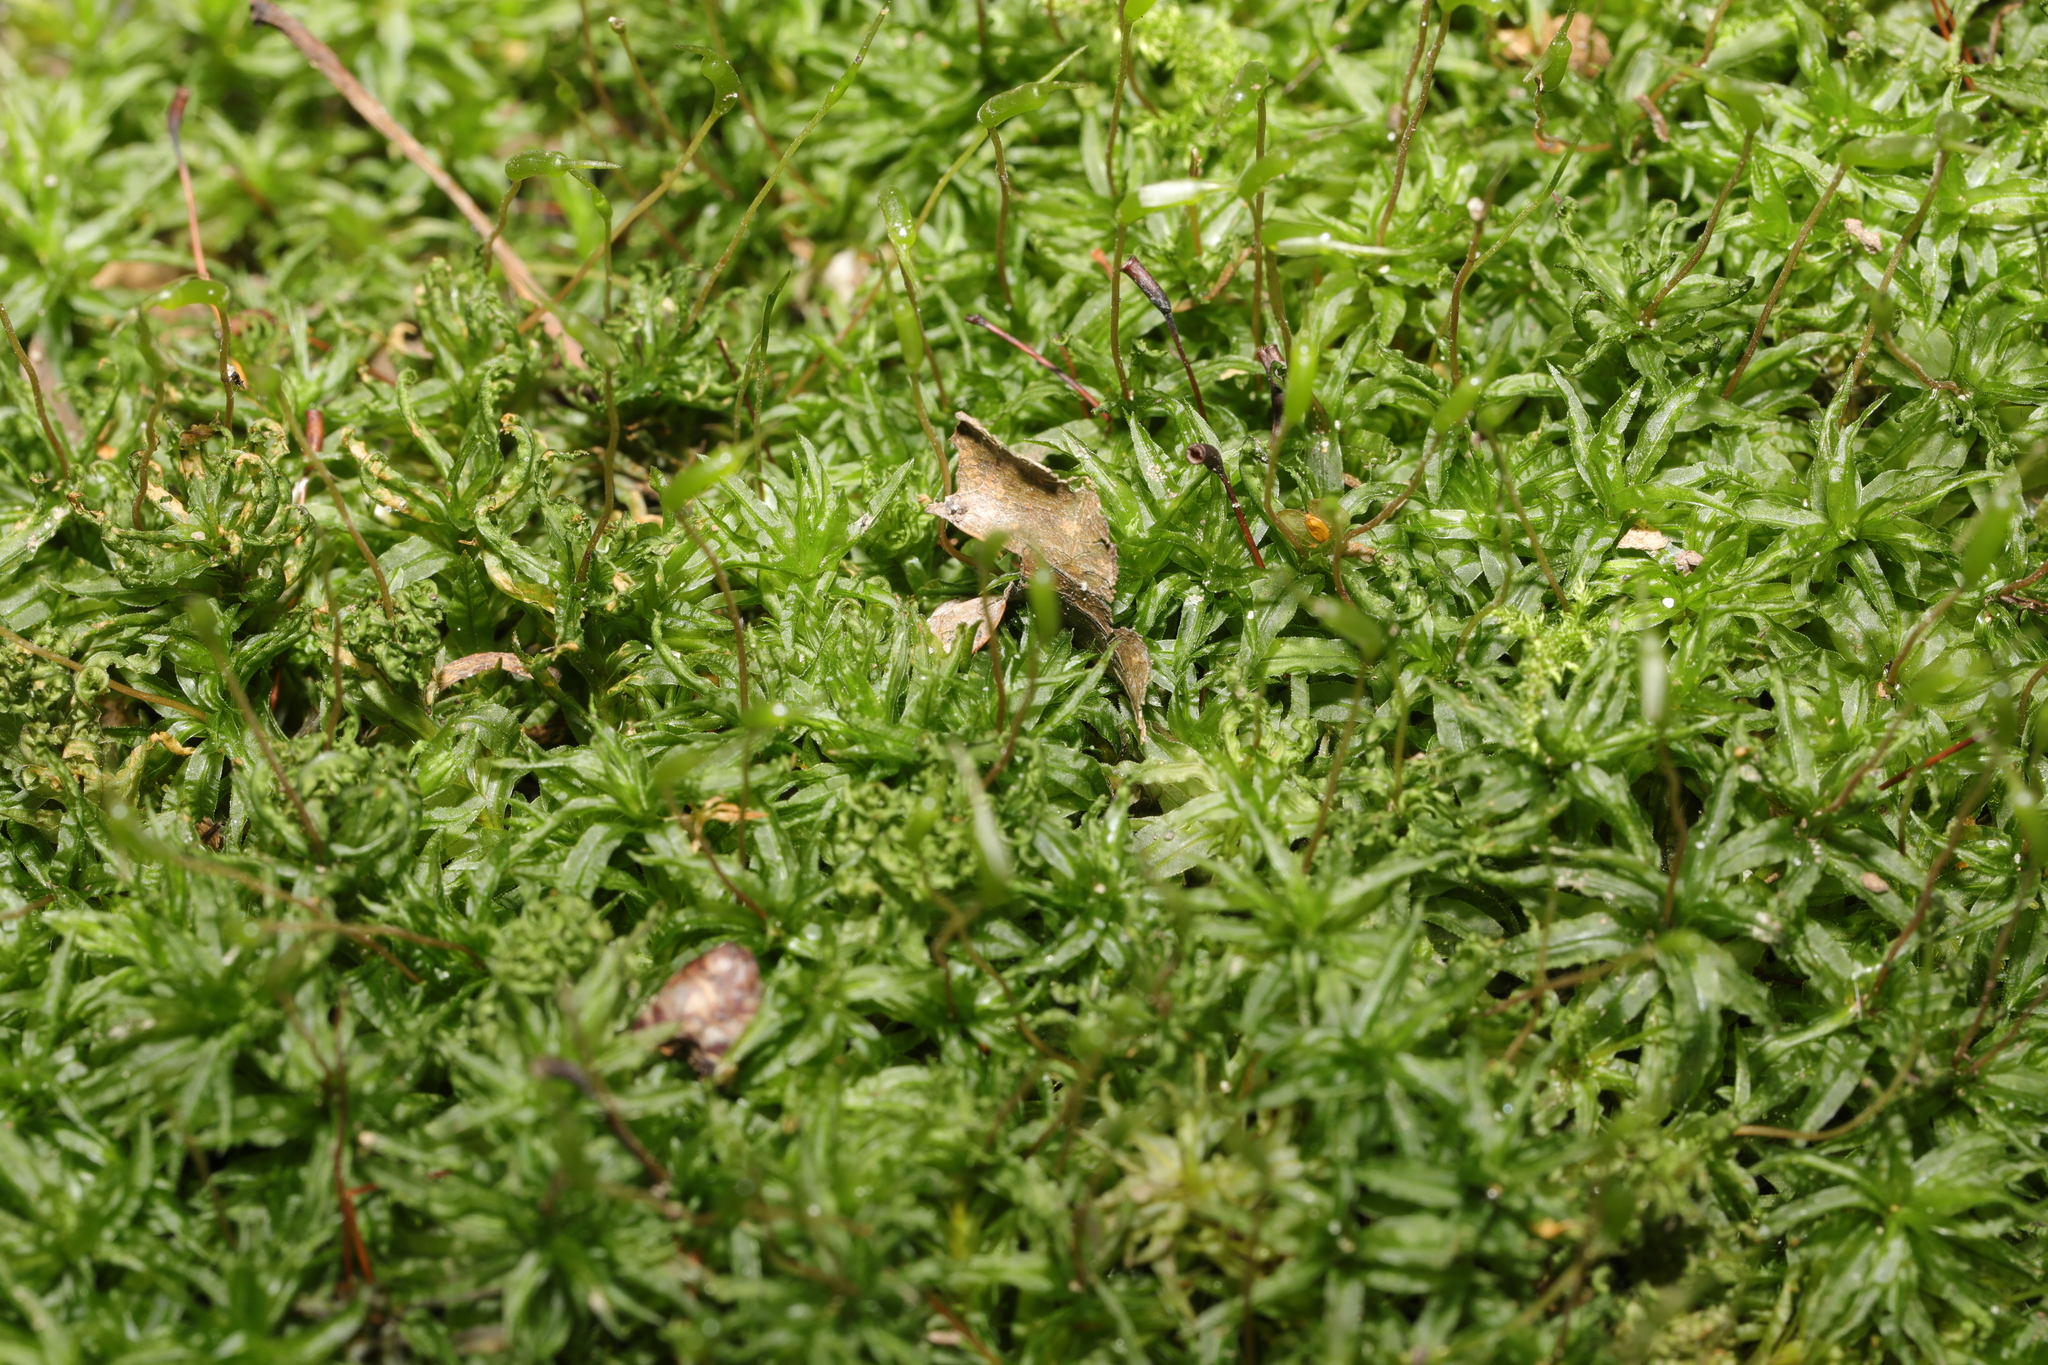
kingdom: Plantae
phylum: Bryophyta
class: Polytrichopsida
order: Polytrichales
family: Polytrichaceae
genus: Atrichum
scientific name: Atrichum undulatum
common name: Common smoothcap
